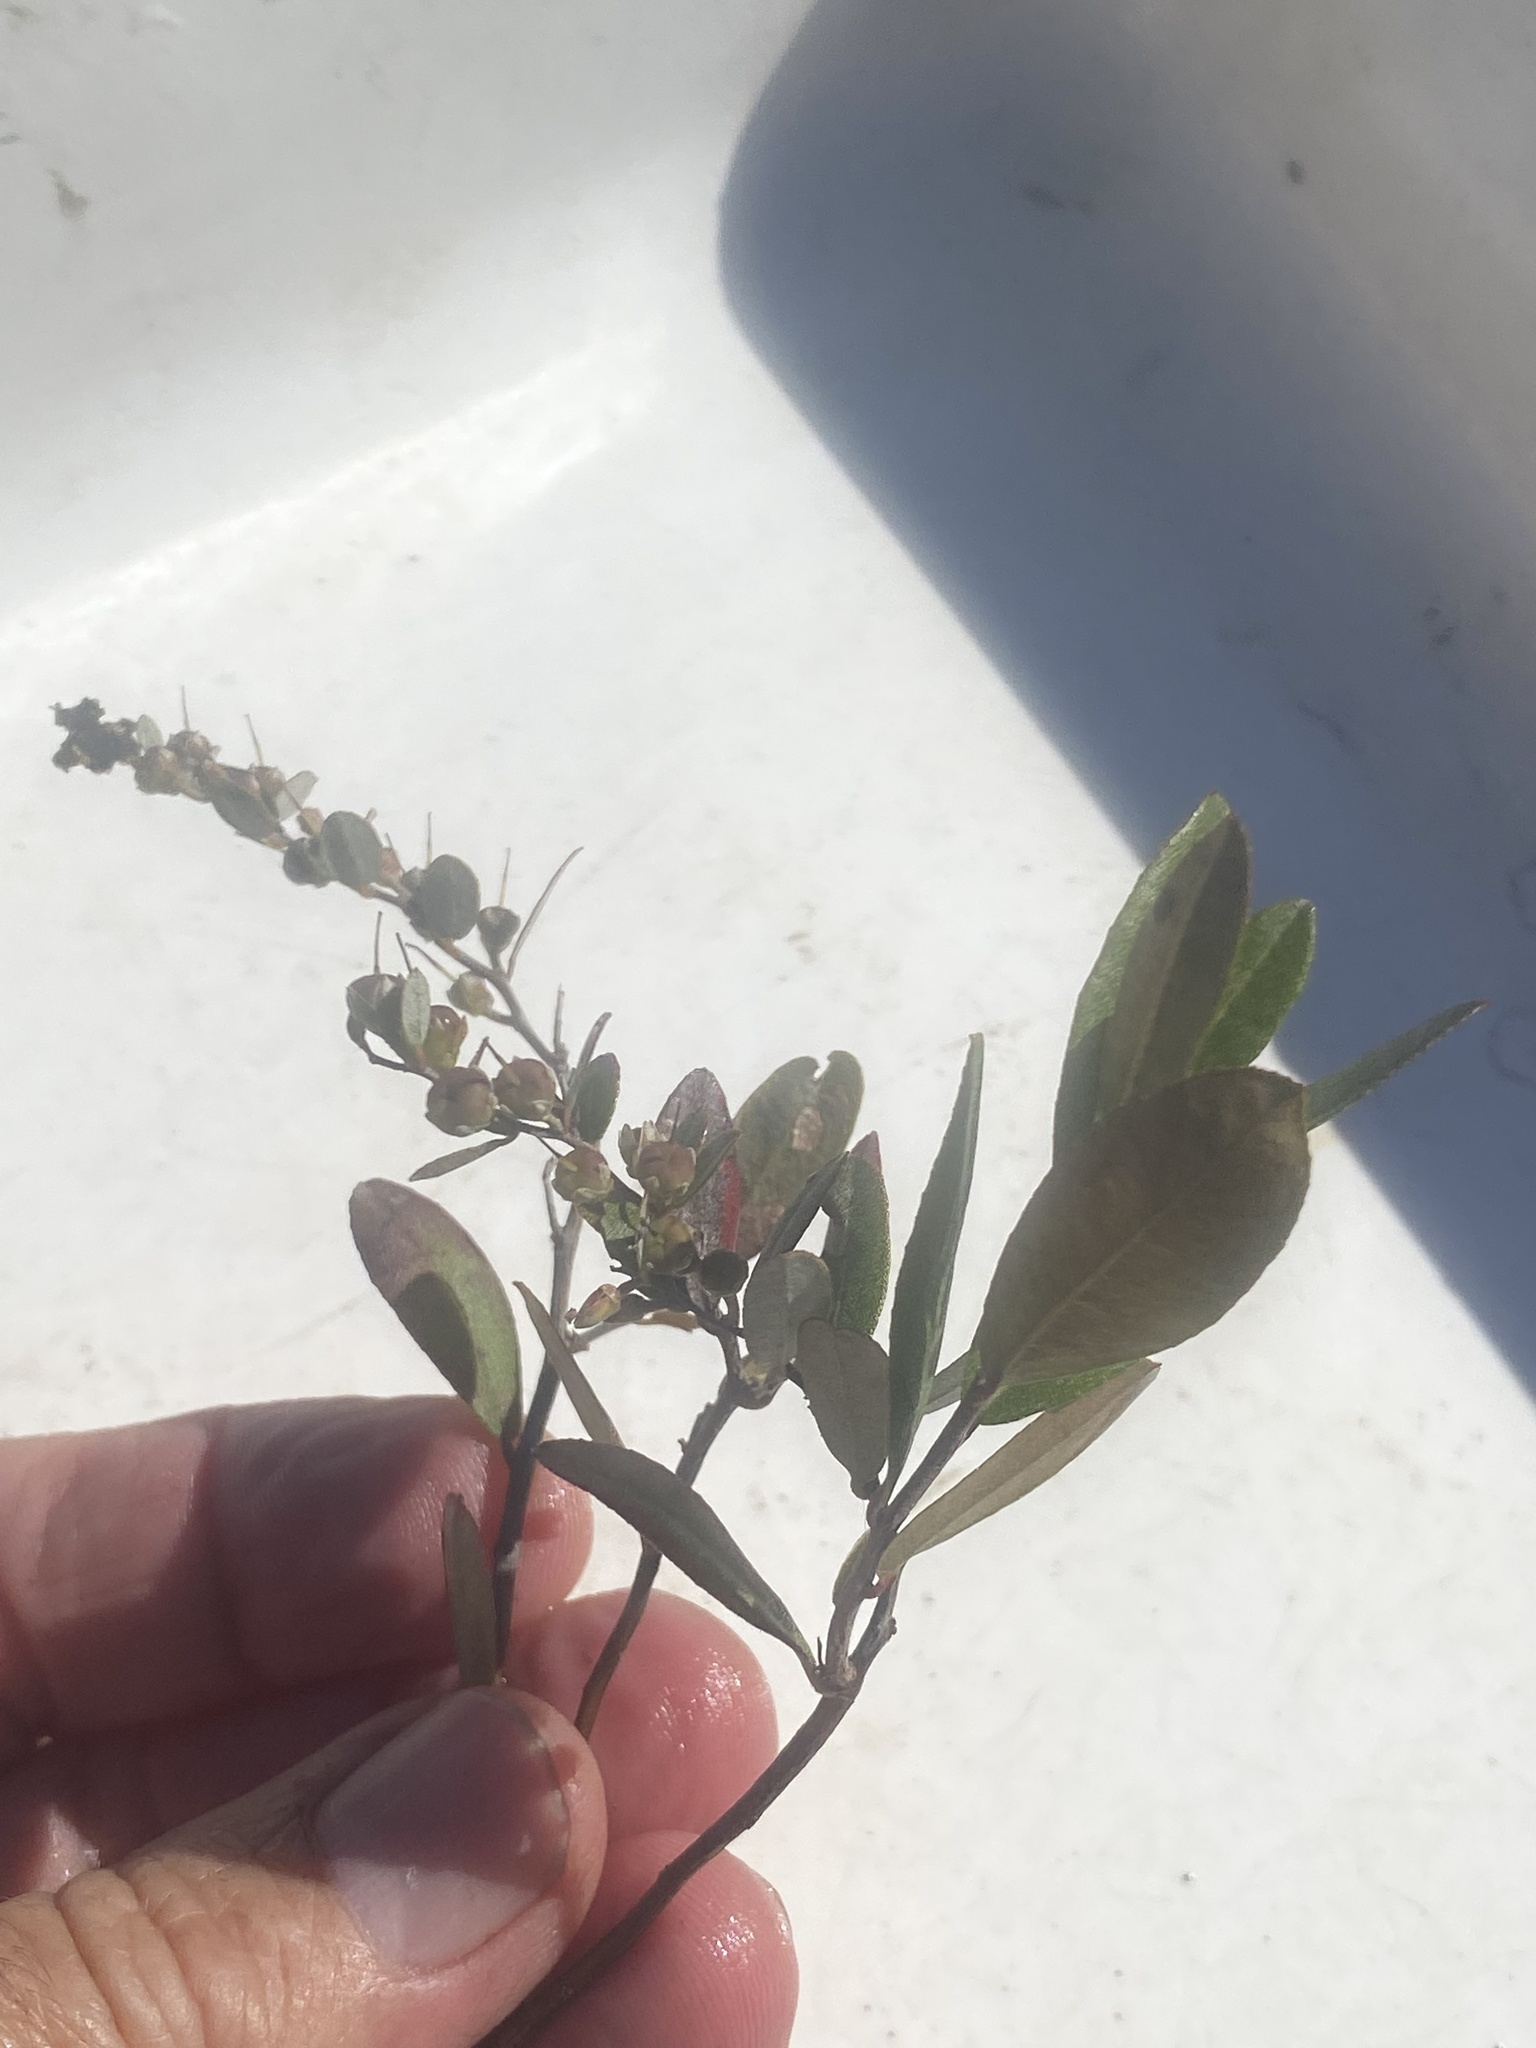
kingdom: Plantae
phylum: Tracheophyta
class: Magnoliopsida
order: Ericales
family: Ericaceae
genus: Chamaedaphne
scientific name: Chamaedaphne calyculata
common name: Leatherleaf
